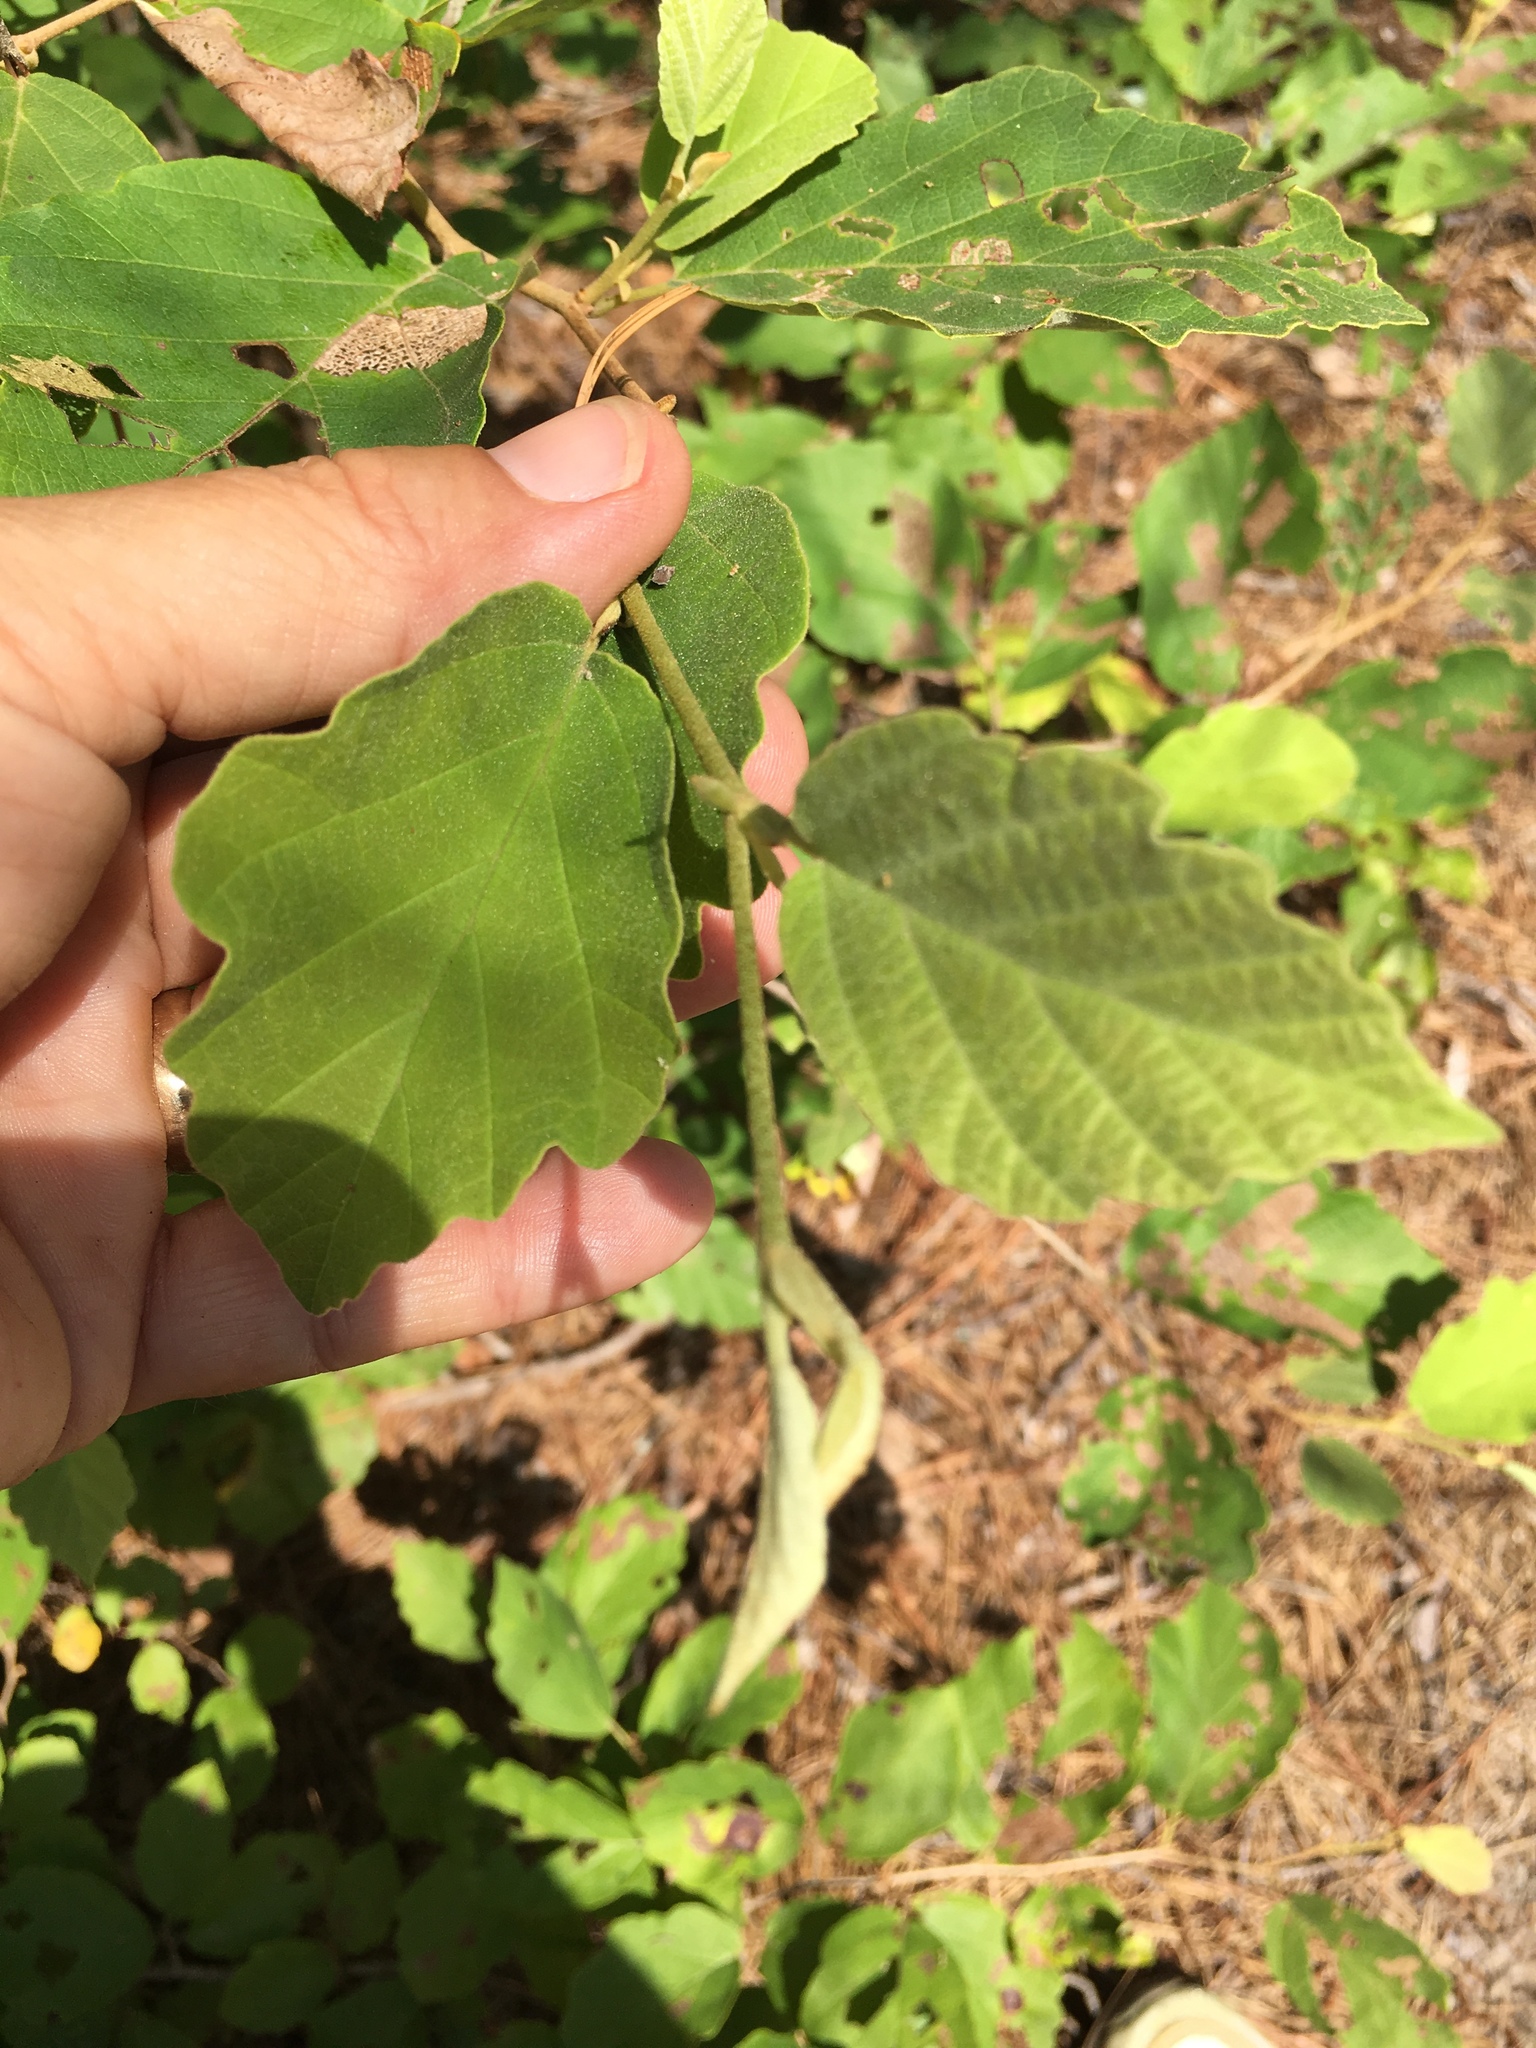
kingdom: Plantae
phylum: Tracheophyta
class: Magnoliopsida
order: Saxifragales
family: Hamamelidaceae
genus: Hamamelis
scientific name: Hamamelis virginiana
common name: Witch-hazel
